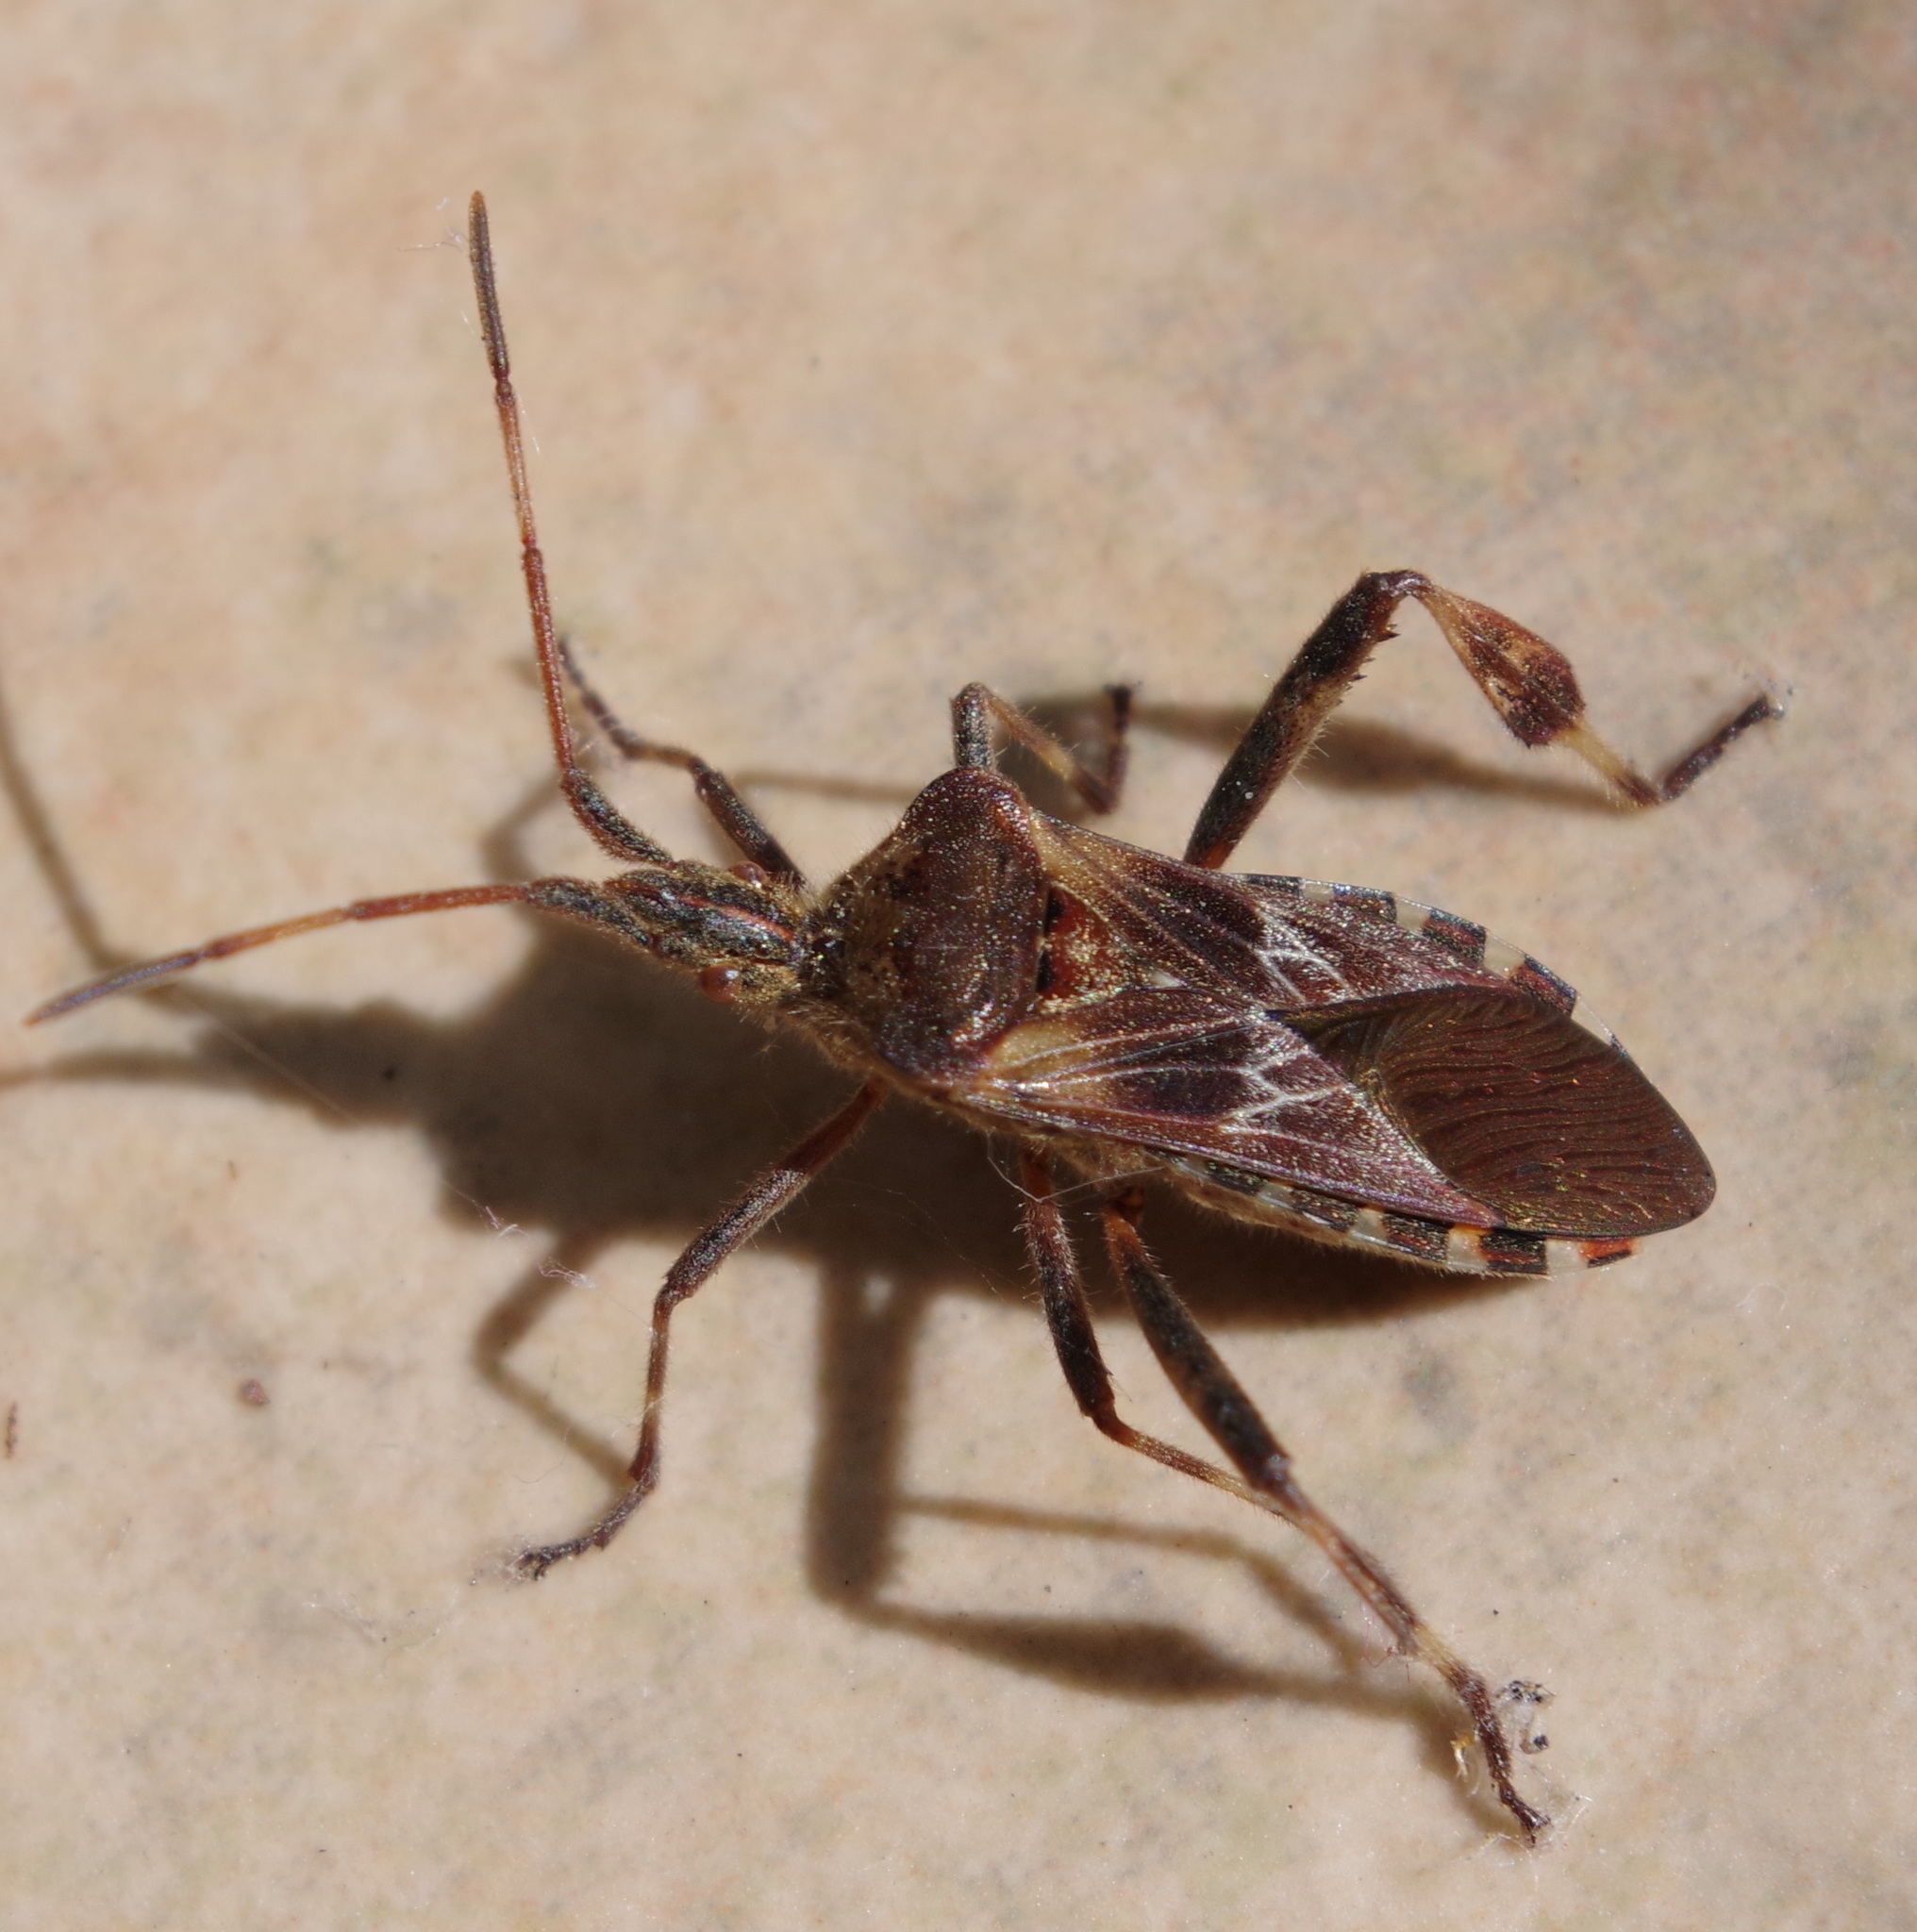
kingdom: Animalia
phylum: Arthropoda
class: Insecta
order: Hemiptera
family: Coreidae
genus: Leptoglossus
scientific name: Leptoglossus occidentalis
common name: Western conifer-seed bug
